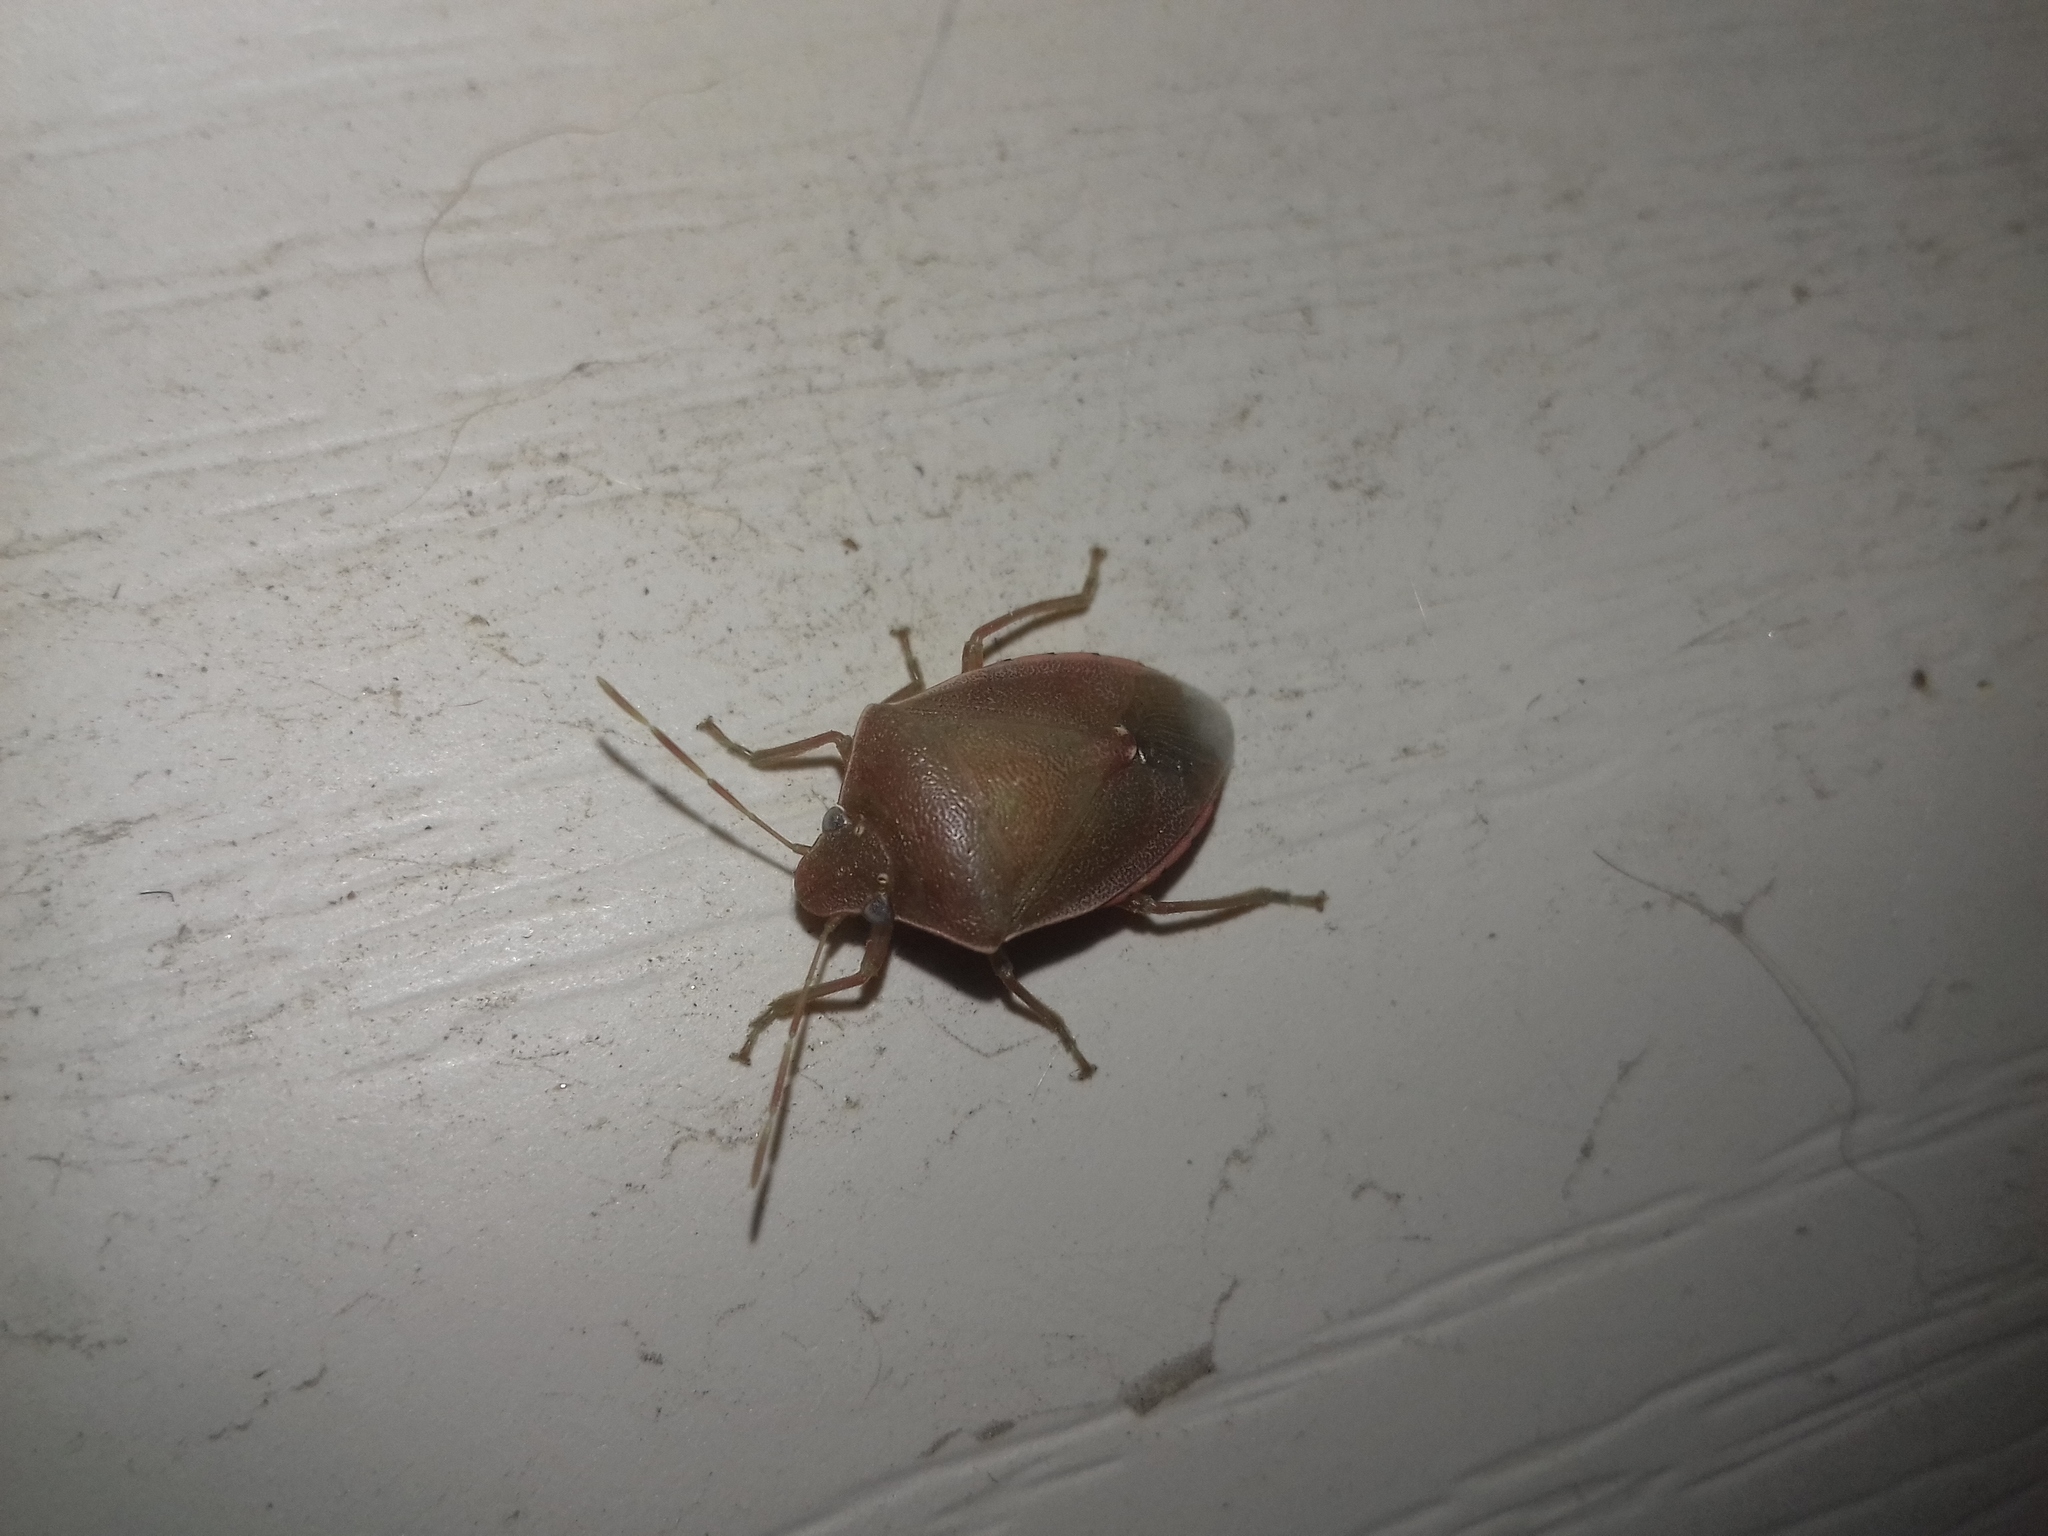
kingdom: Animalia
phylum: Arthropoda
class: Insecta
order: Hemiptera
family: Pentatomidae
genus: Acrosternum
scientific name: Acrosternum heegeri
